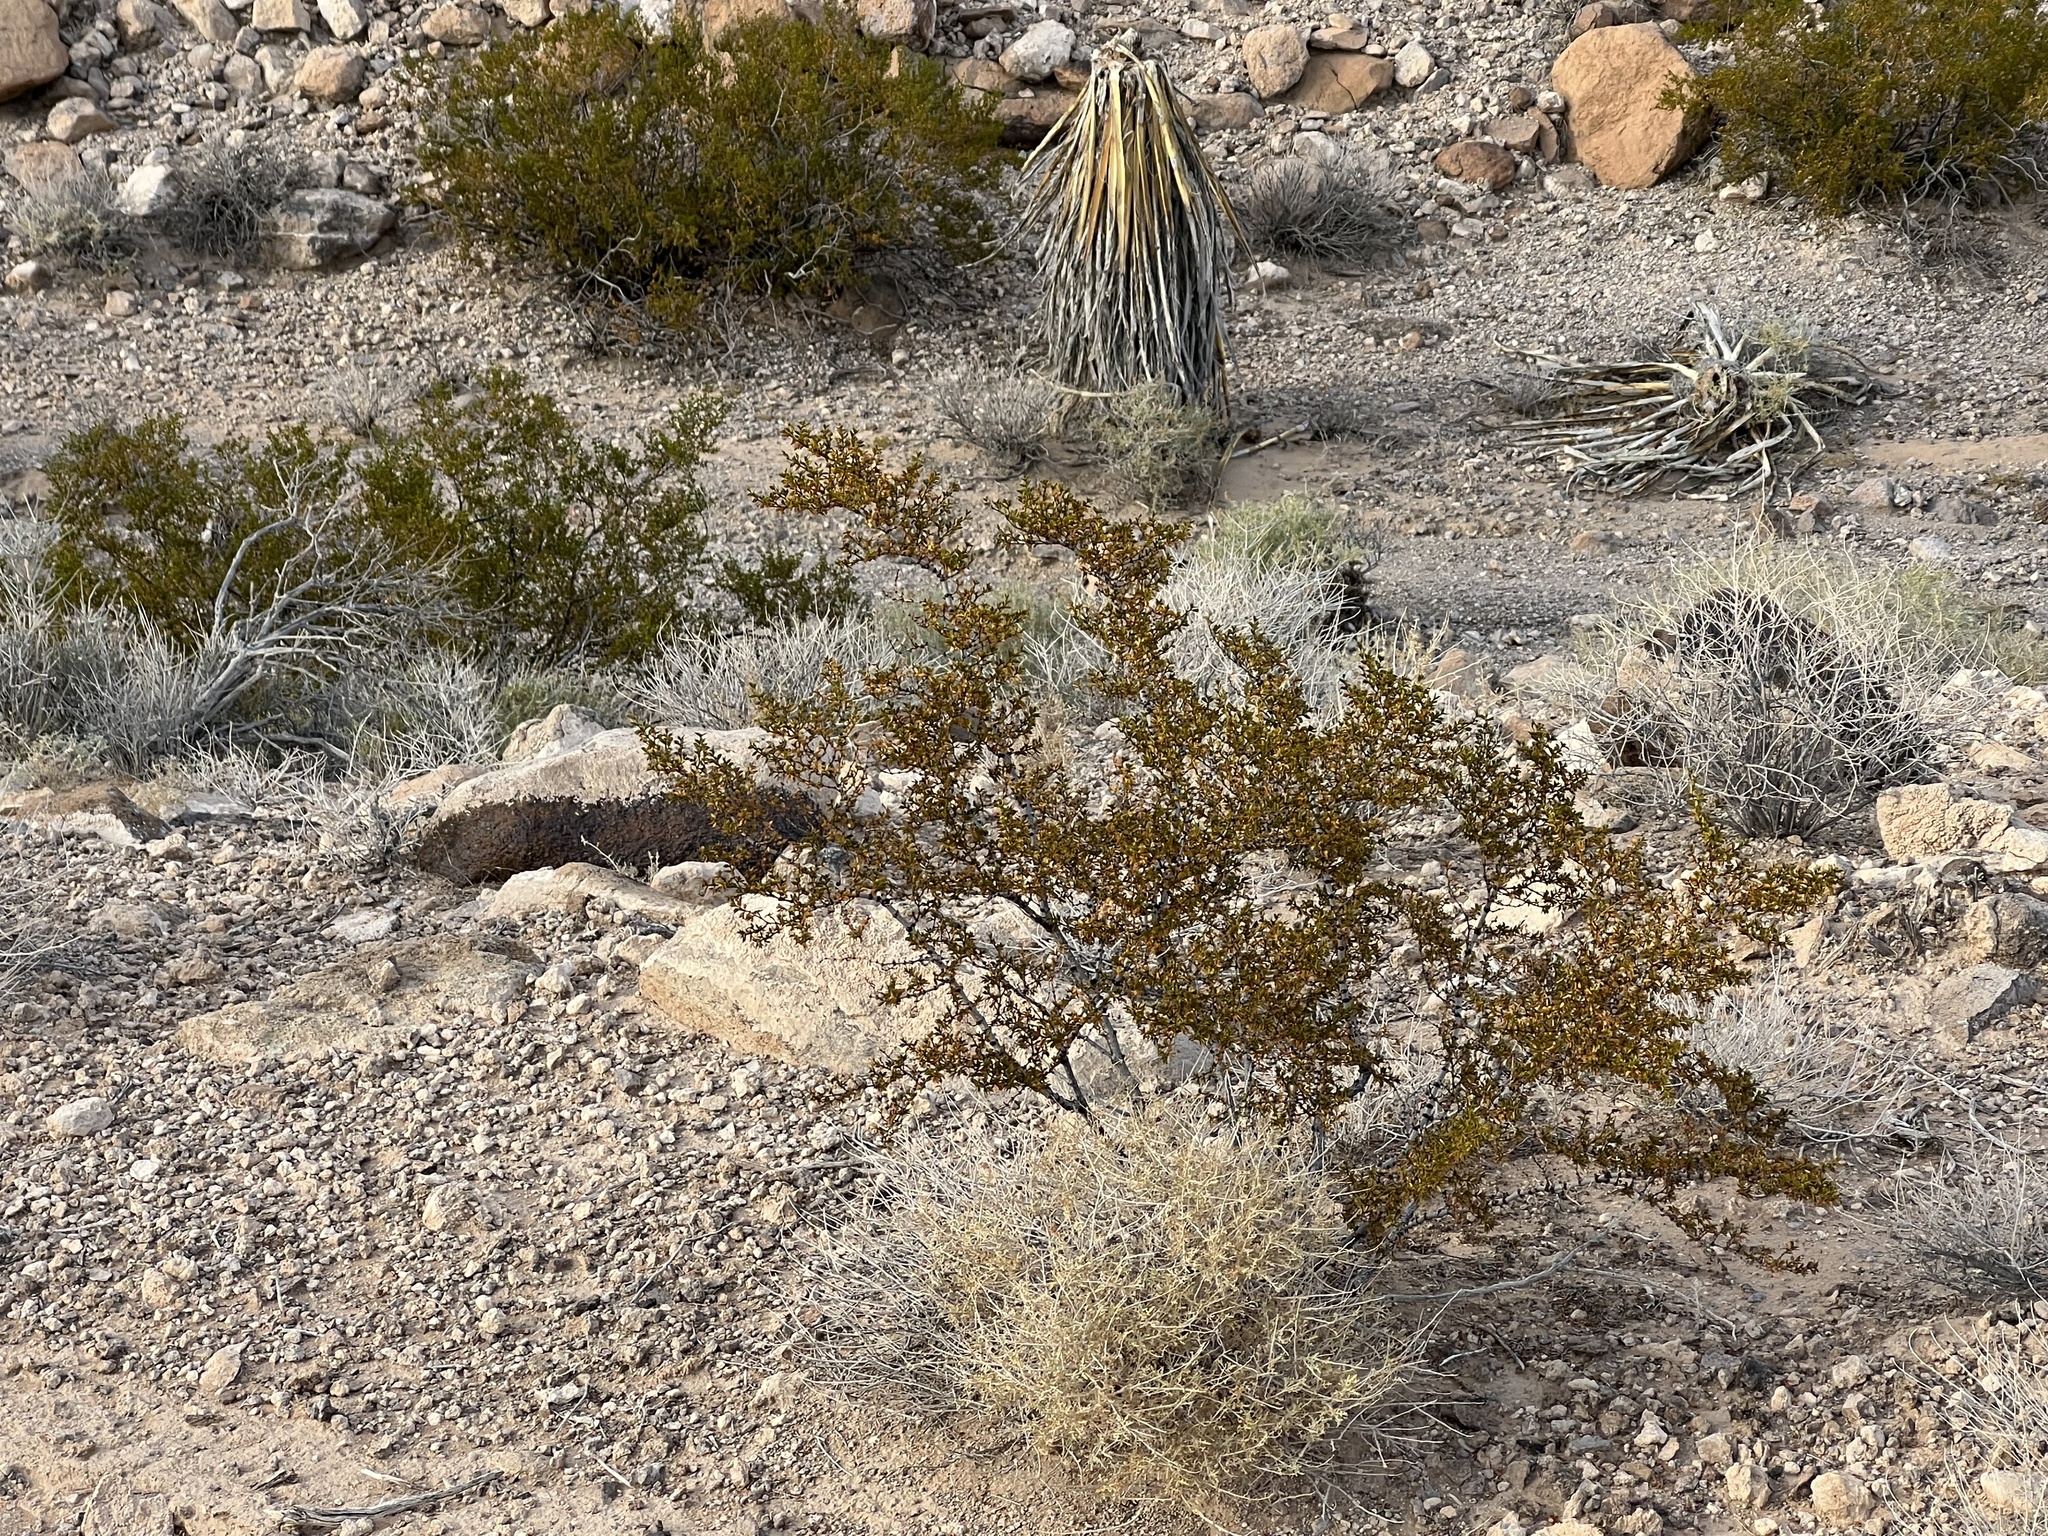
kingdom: Plantae
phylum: Tracheophyta
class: Magnoliopsida
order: Zygophyllales
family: Zygophyllaceae
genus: Larrea
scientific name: Larrea tridentata
